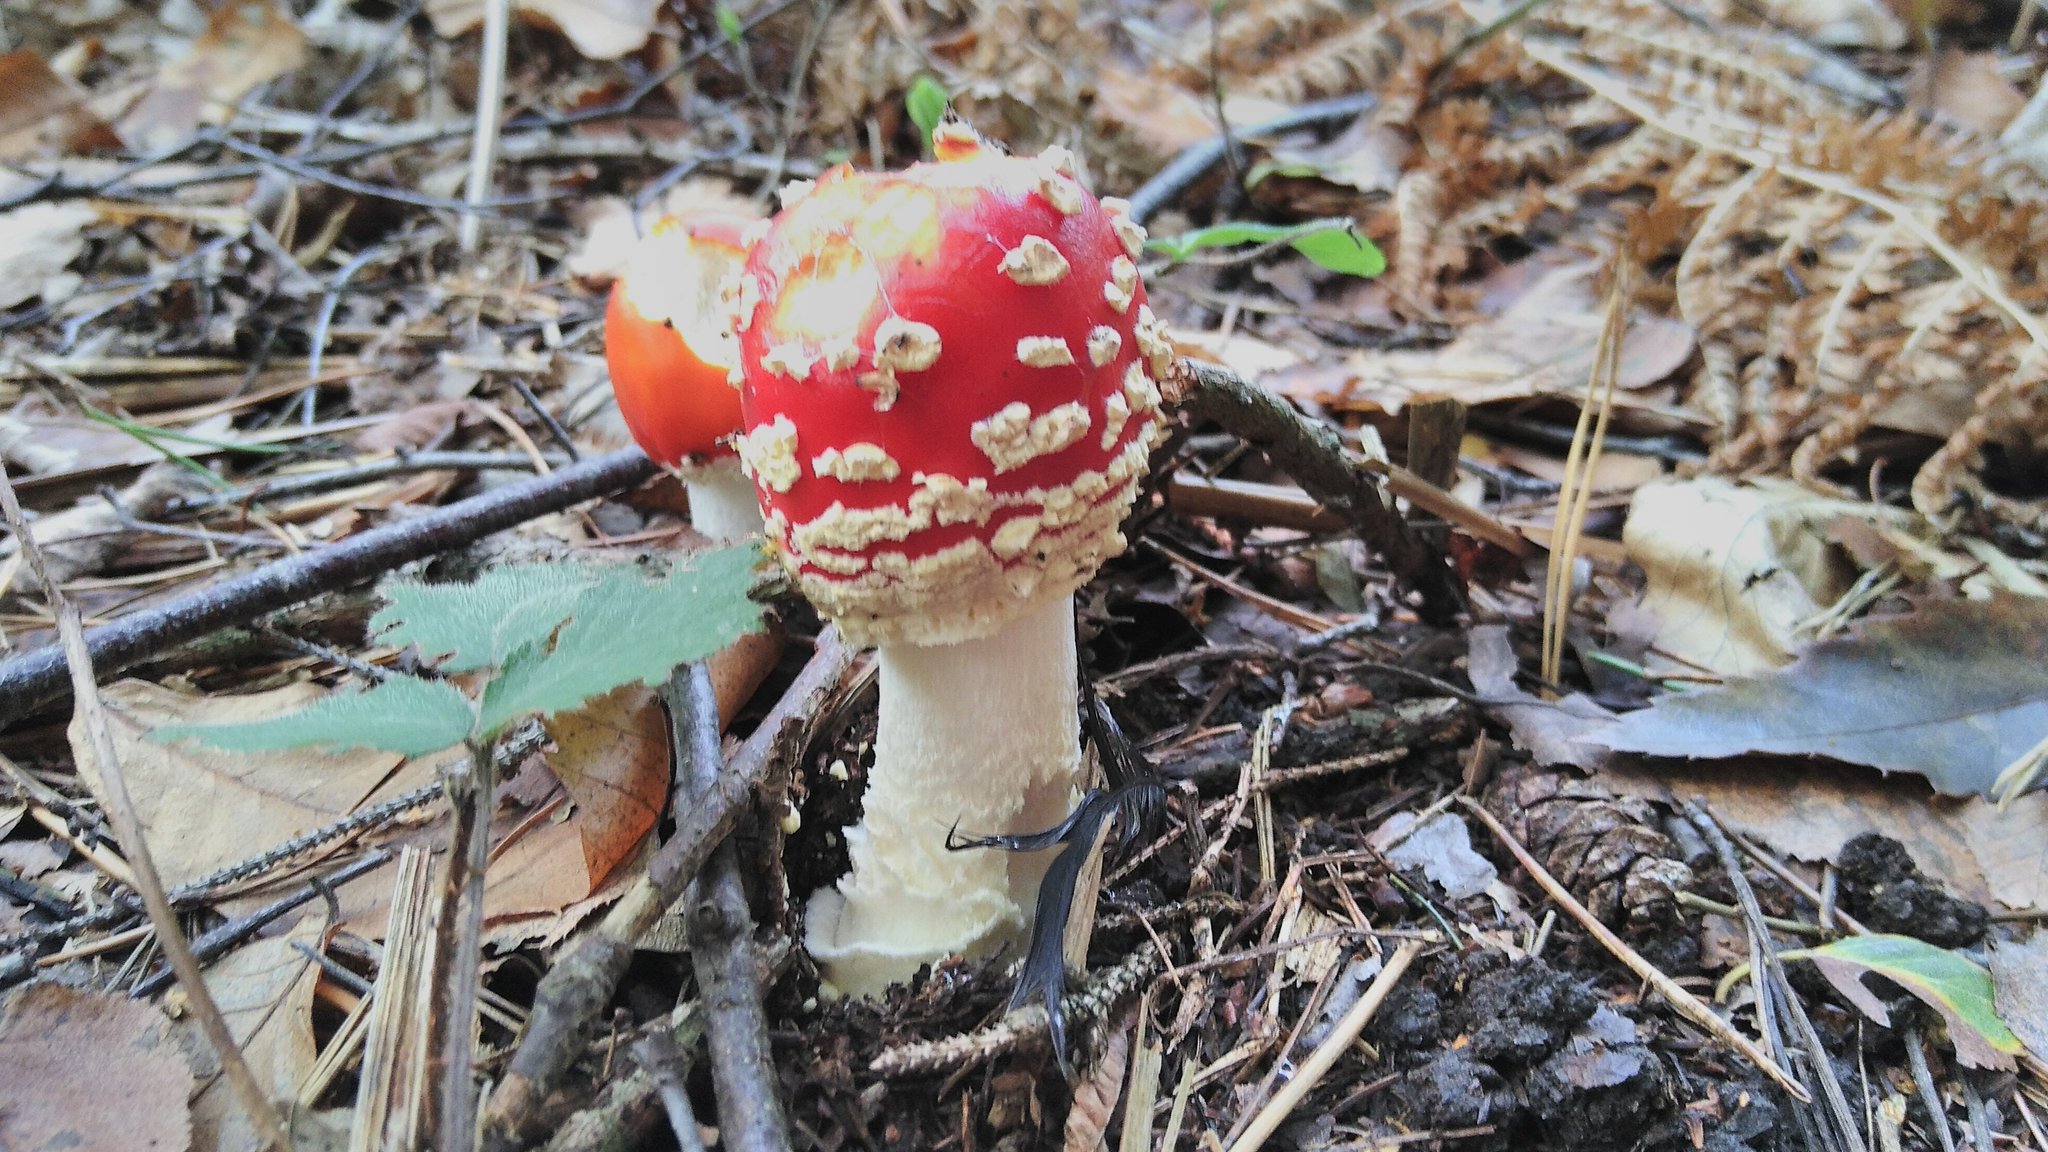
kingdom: Fungi
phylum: Basidiomycota
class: Agaricomycetes
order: Agaricales
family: Amanitaceae
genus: Amanita
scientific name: Amanita muscaria
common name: Fly agaric
